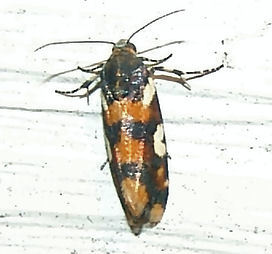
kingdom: Animalia
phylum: Arthropoda
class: Insecta
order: Lepidoptera
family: Noctuidae
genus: Acontia
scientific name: Acontia dama
